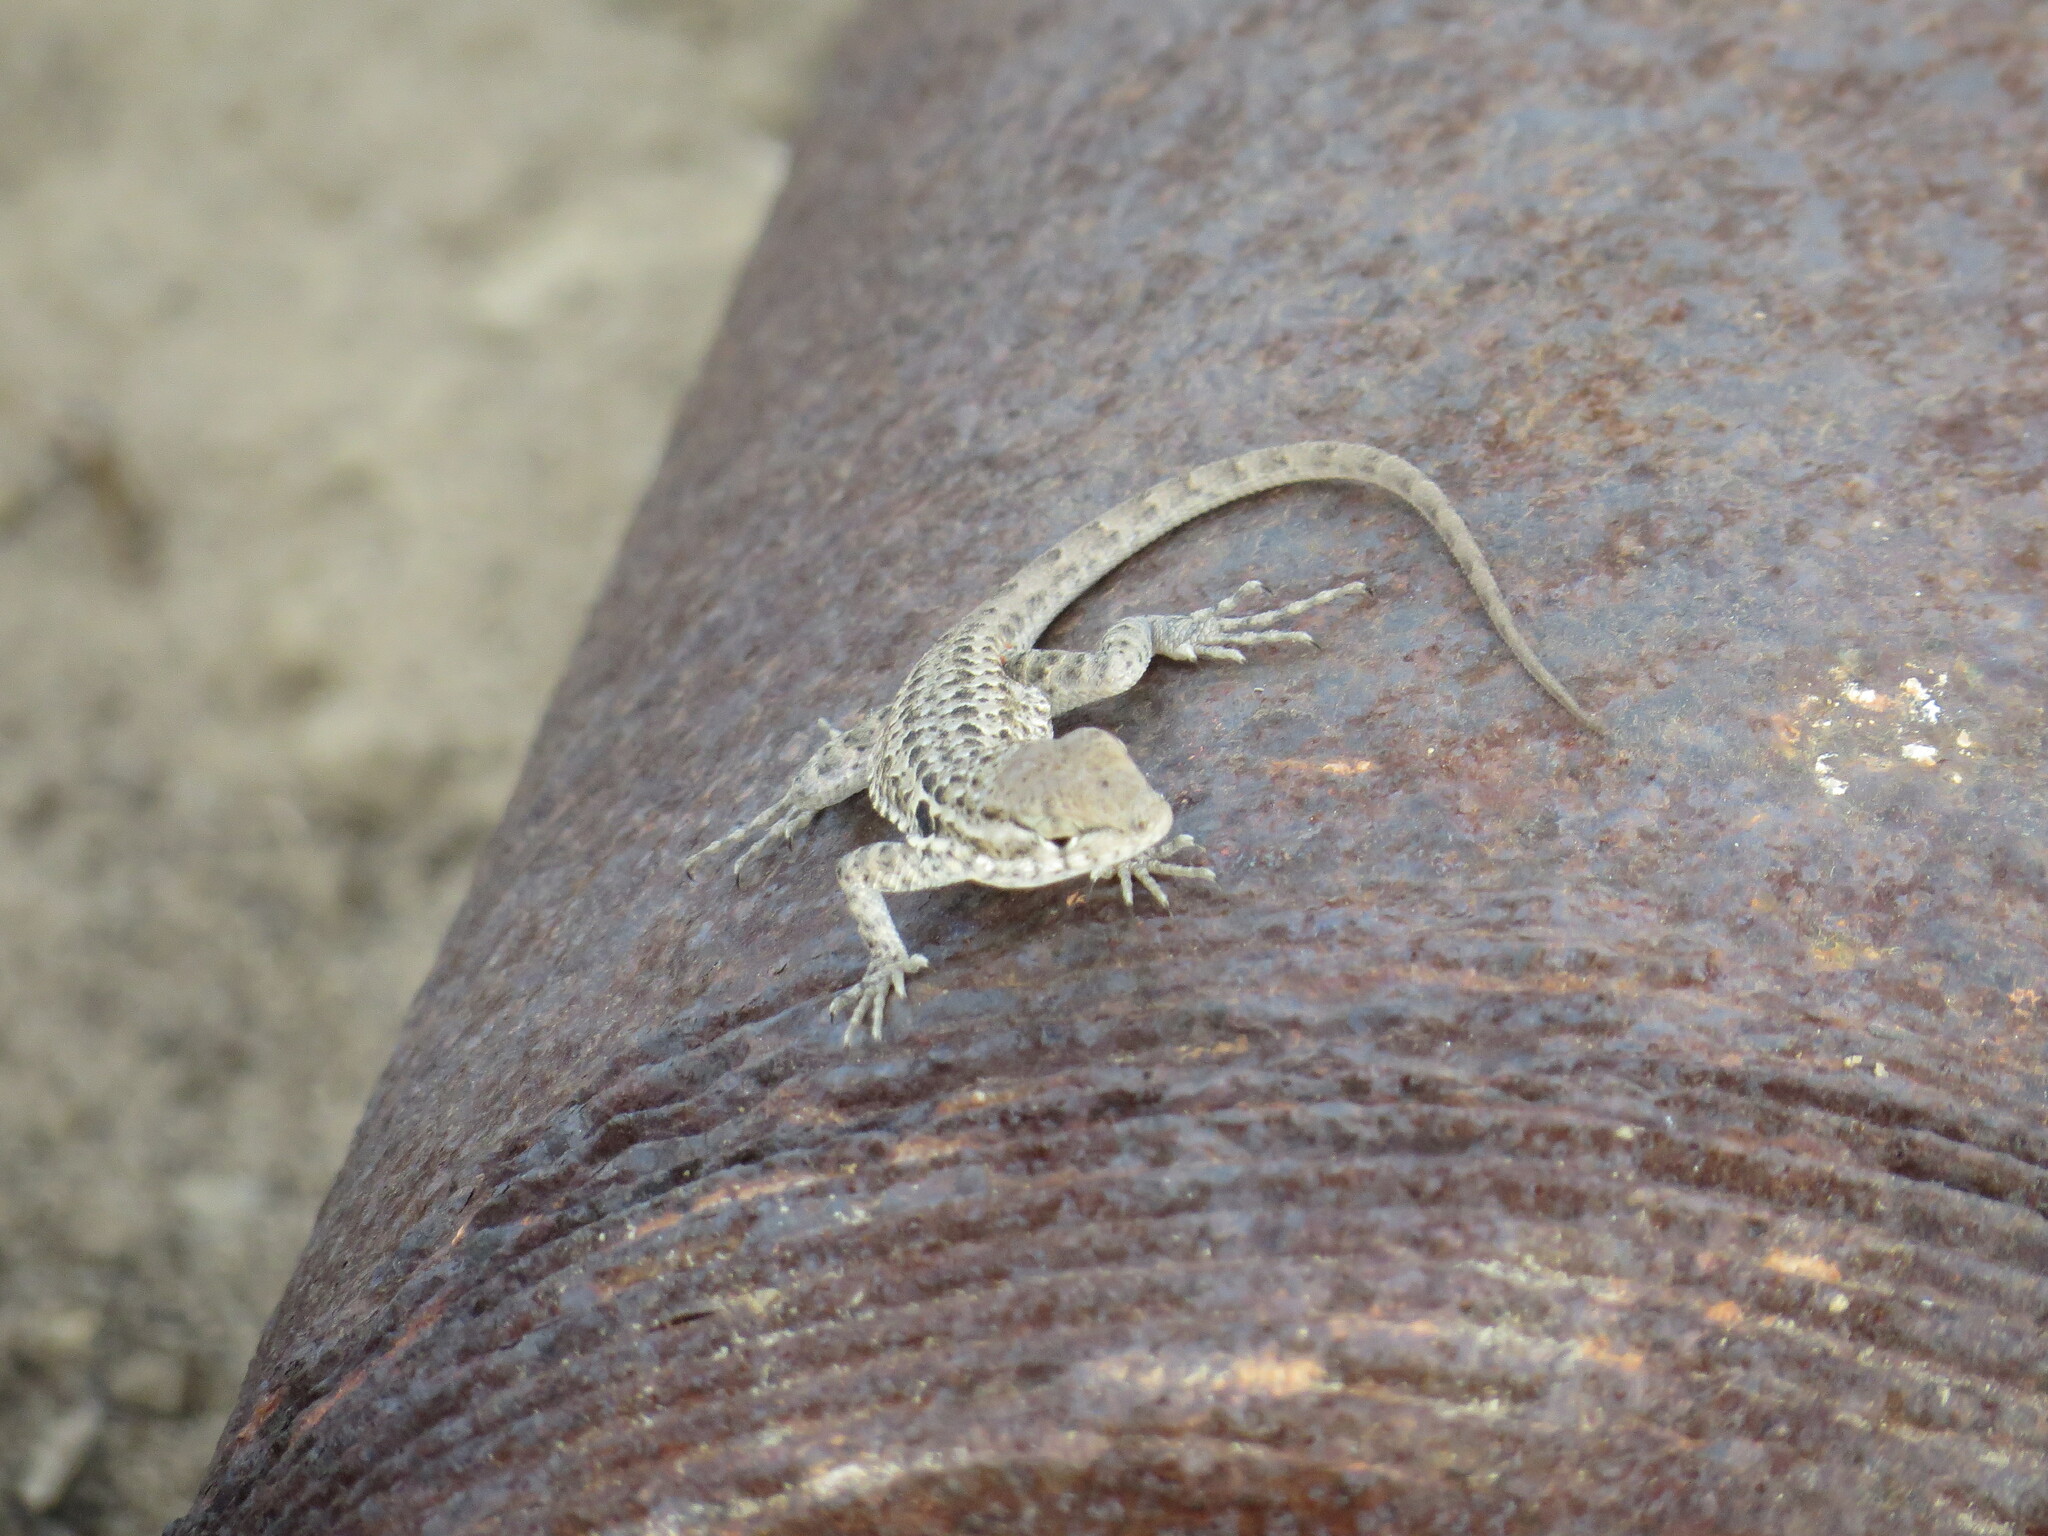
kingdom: Animalia
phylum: Chordata
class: Squamata
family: Phrynosomatidae
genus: Uta
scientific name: Uta stansburiana
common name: Side-blotched lizard
